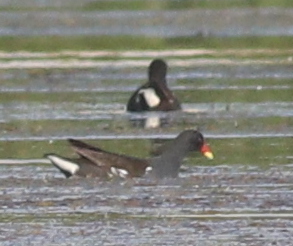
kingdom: Animalia
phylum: Chordata
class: Aves
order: Gruiformes
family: Rallidae
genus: Gallinula
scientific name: Gallinula chloropus
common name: Common moorhen
